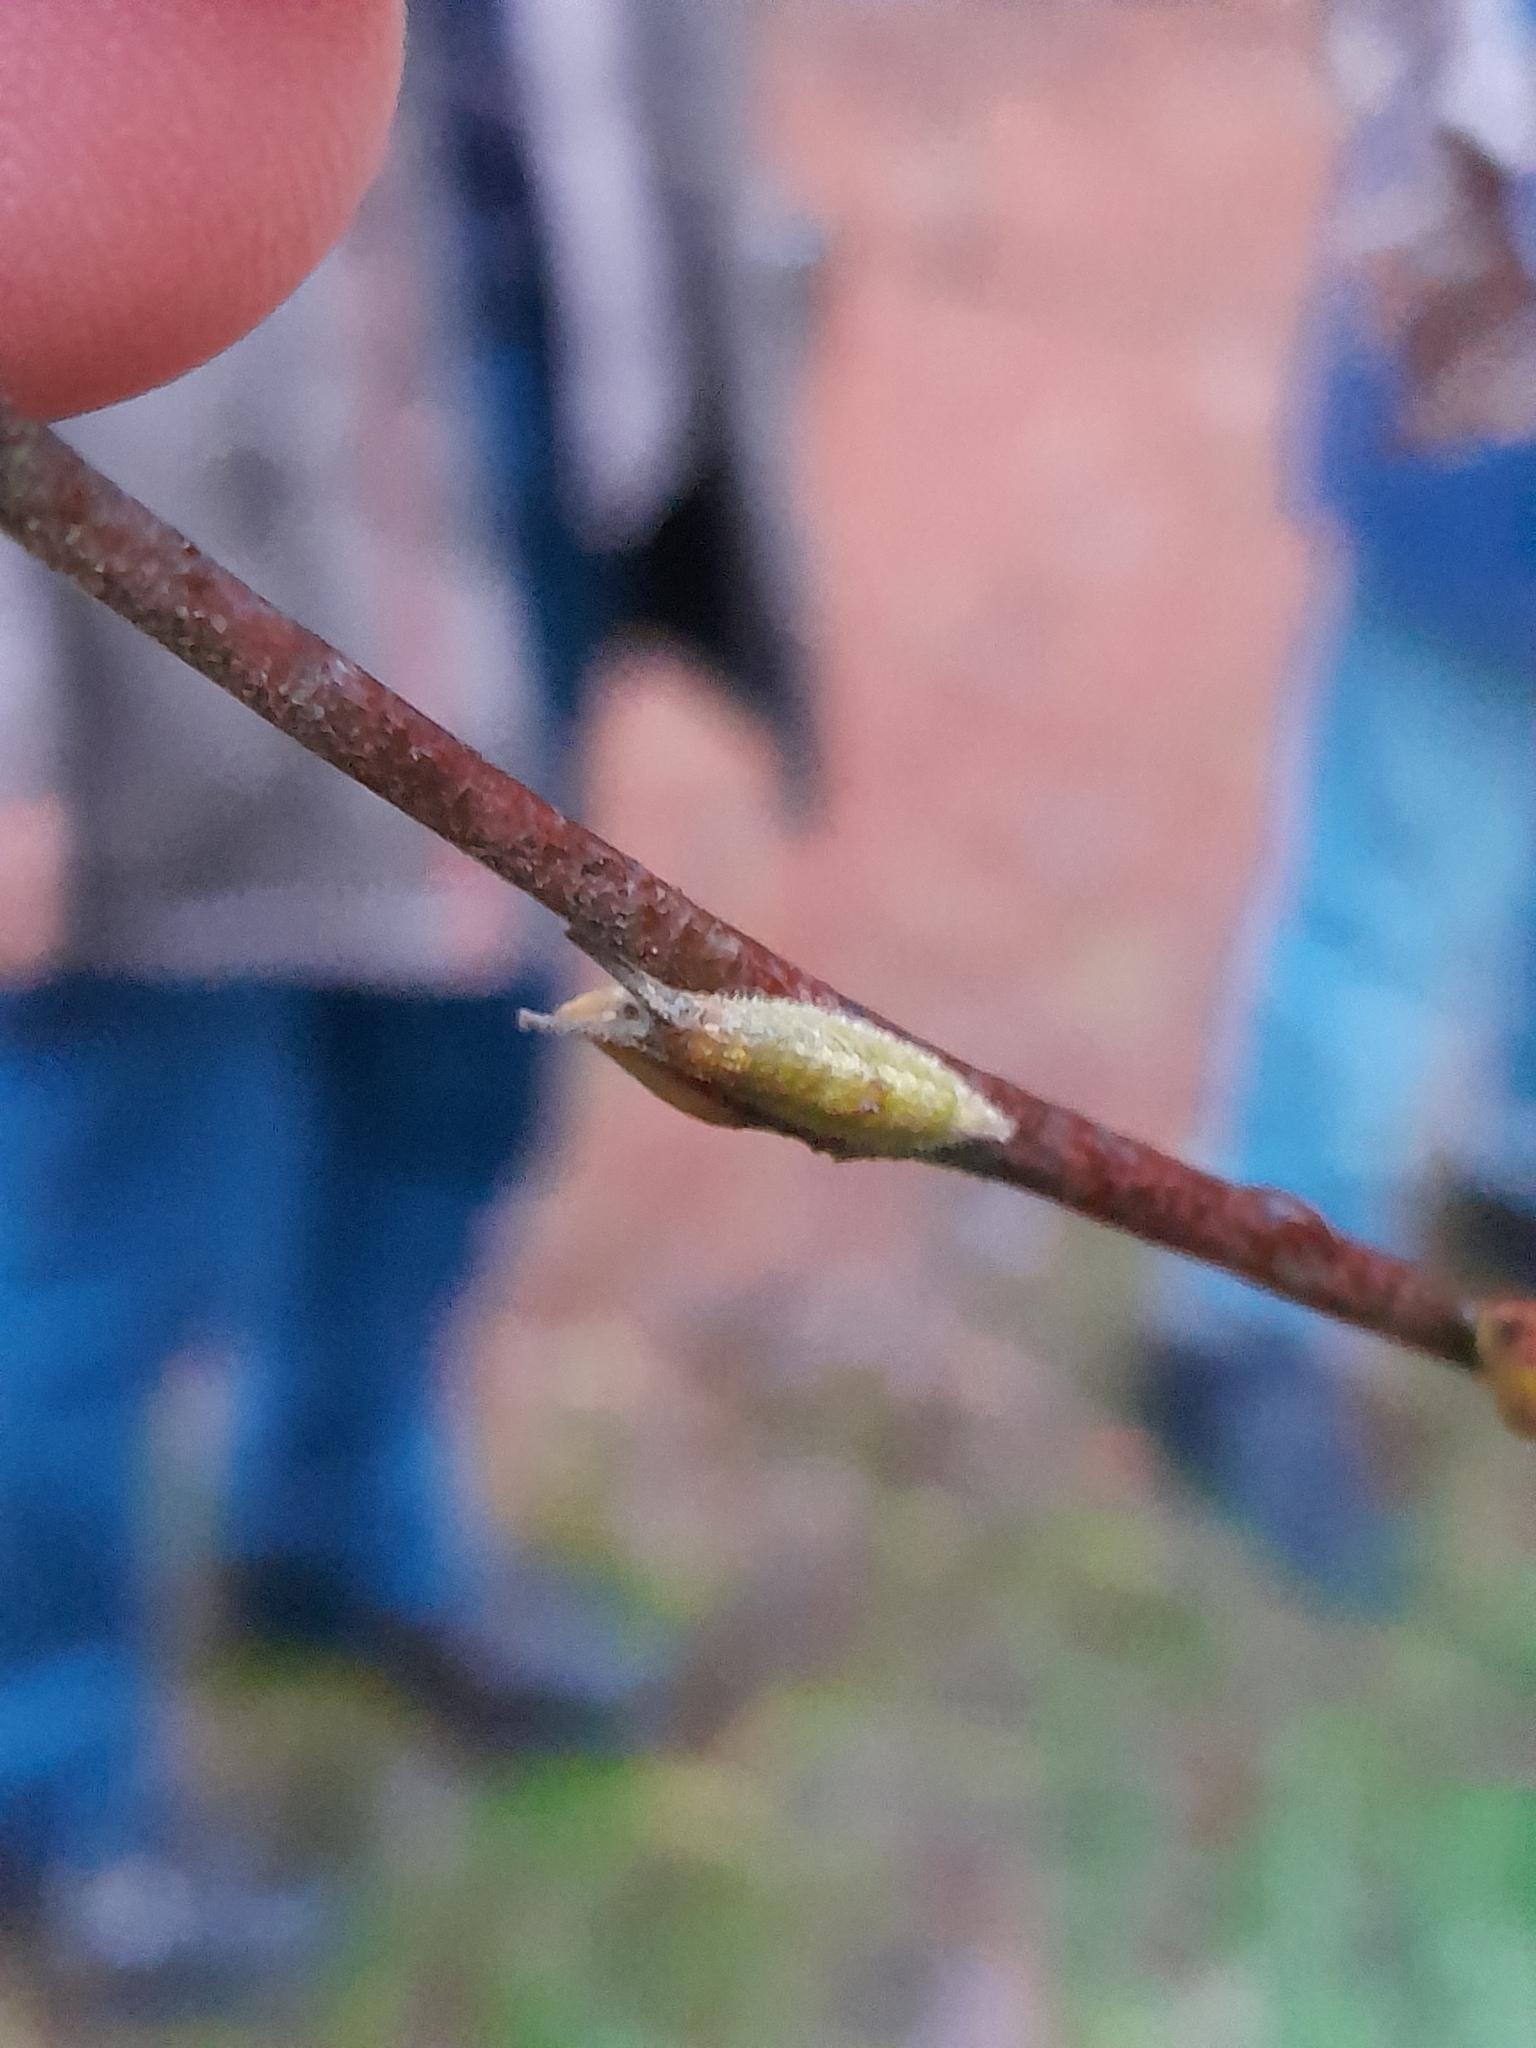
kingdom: Animalia
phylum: Arthropoda
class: Insecta
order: Lepidoptera
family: Nymphalidae
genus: Apatura
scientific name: Apatura iris
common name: Purple emperor
